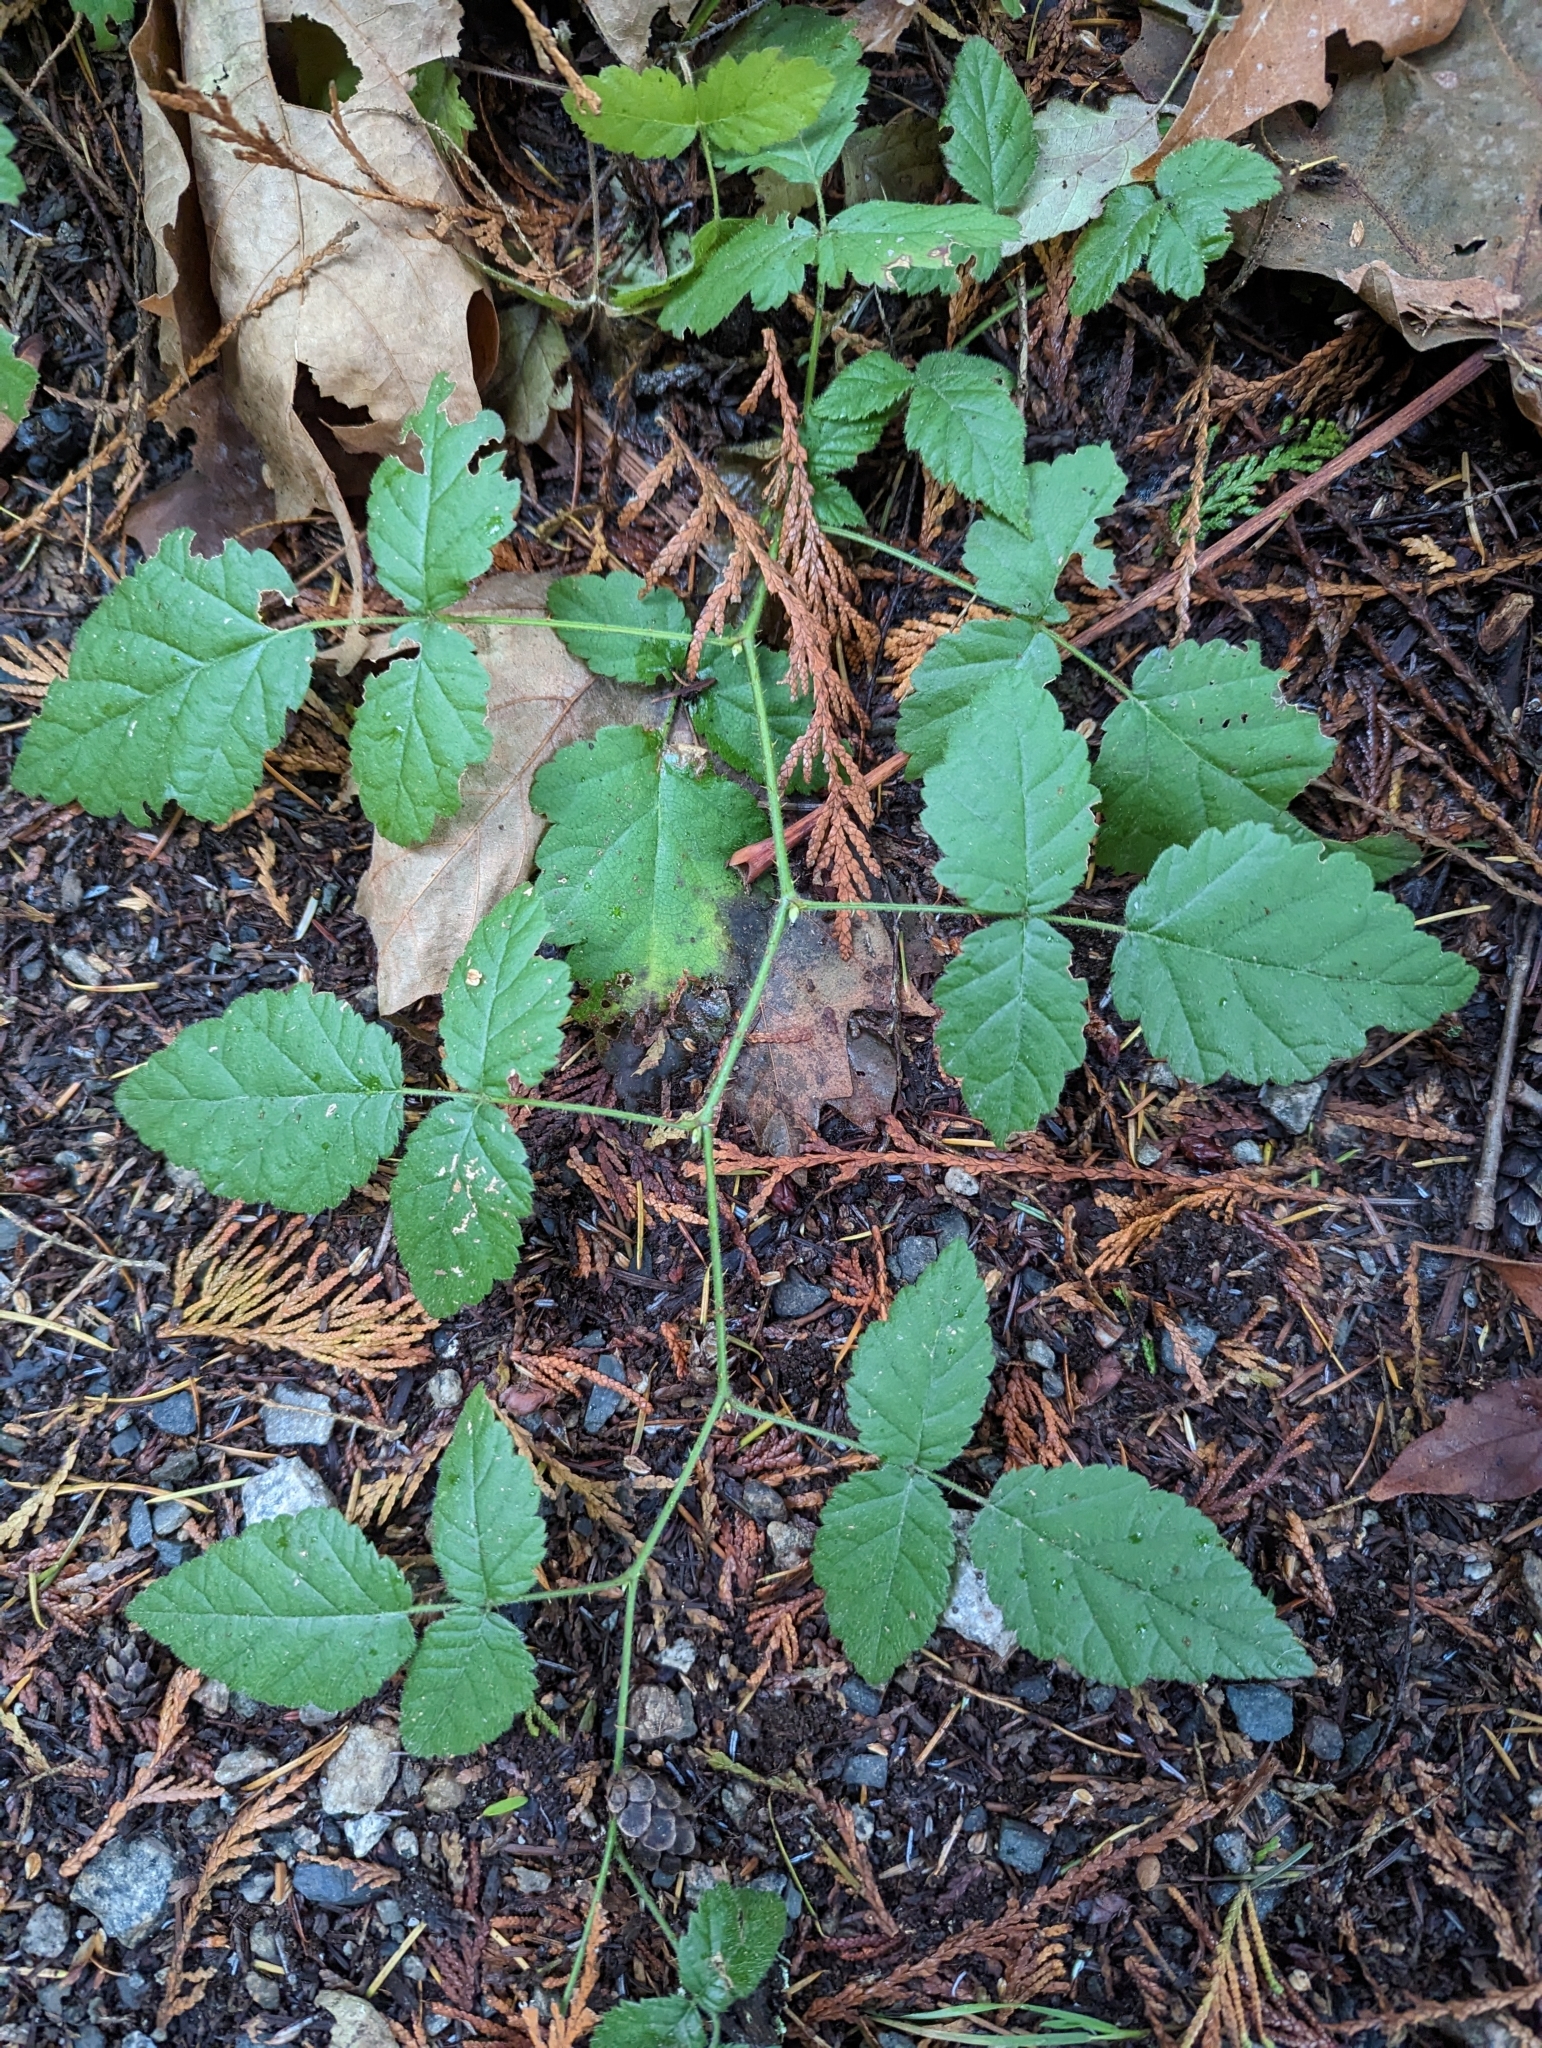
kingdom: Plantae
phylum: Tracheophyta
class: Magnoliopsida
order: Rosales
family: Rosaceae
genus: Rubus
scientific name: Rubus ursinus
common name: Pacific blackberry
